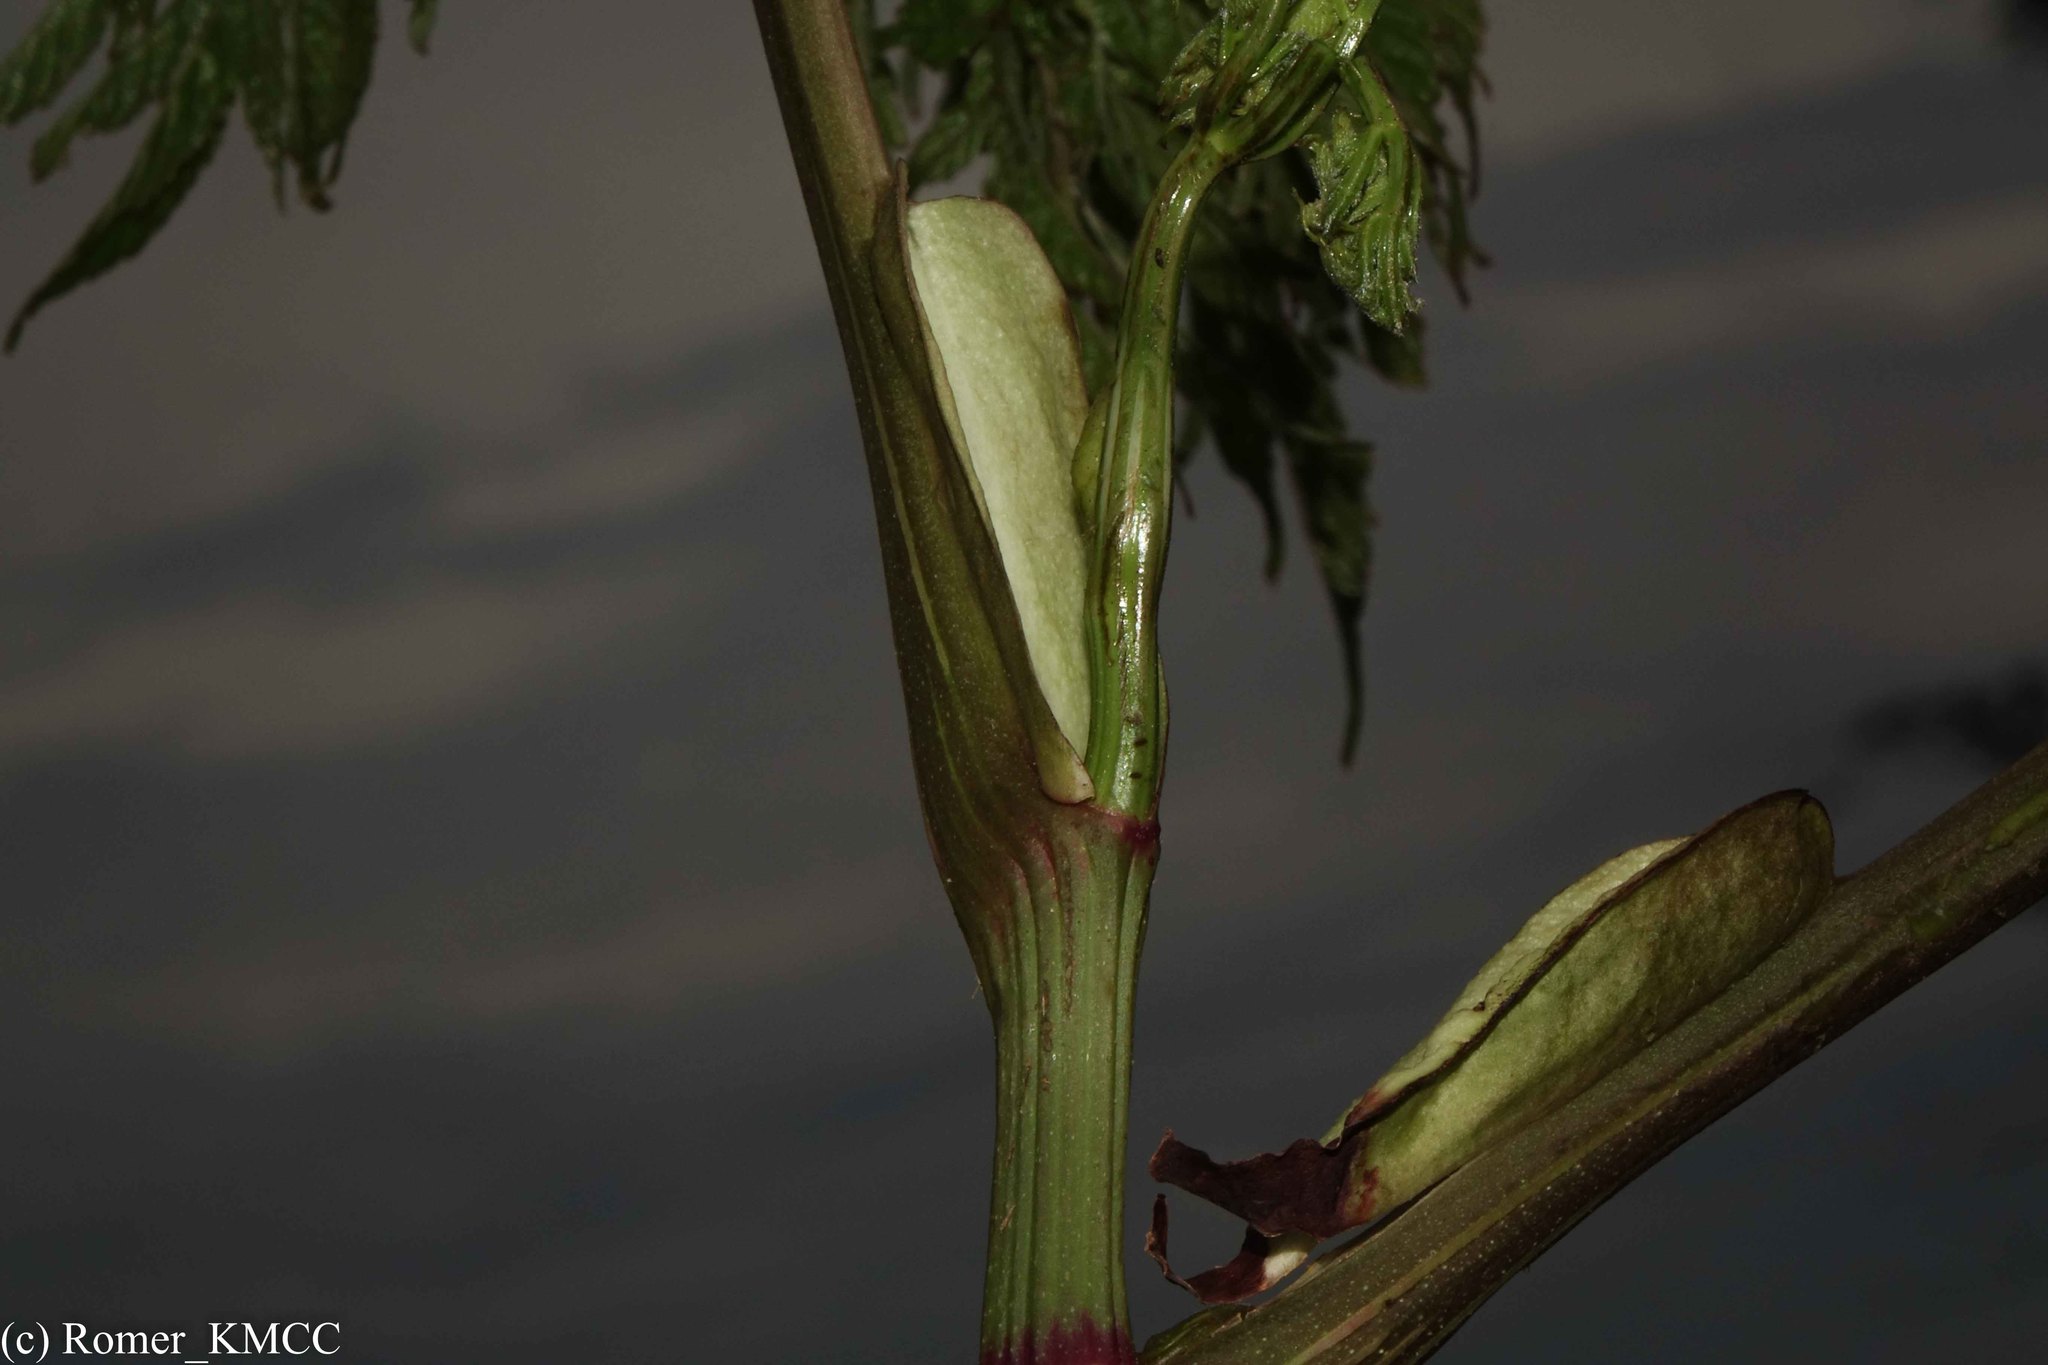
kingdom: Plantae
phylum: Tracheophyta
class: Magnoliopsida
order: Vitales
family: Vitaceae
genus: Leea
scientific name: Leea guineensis
